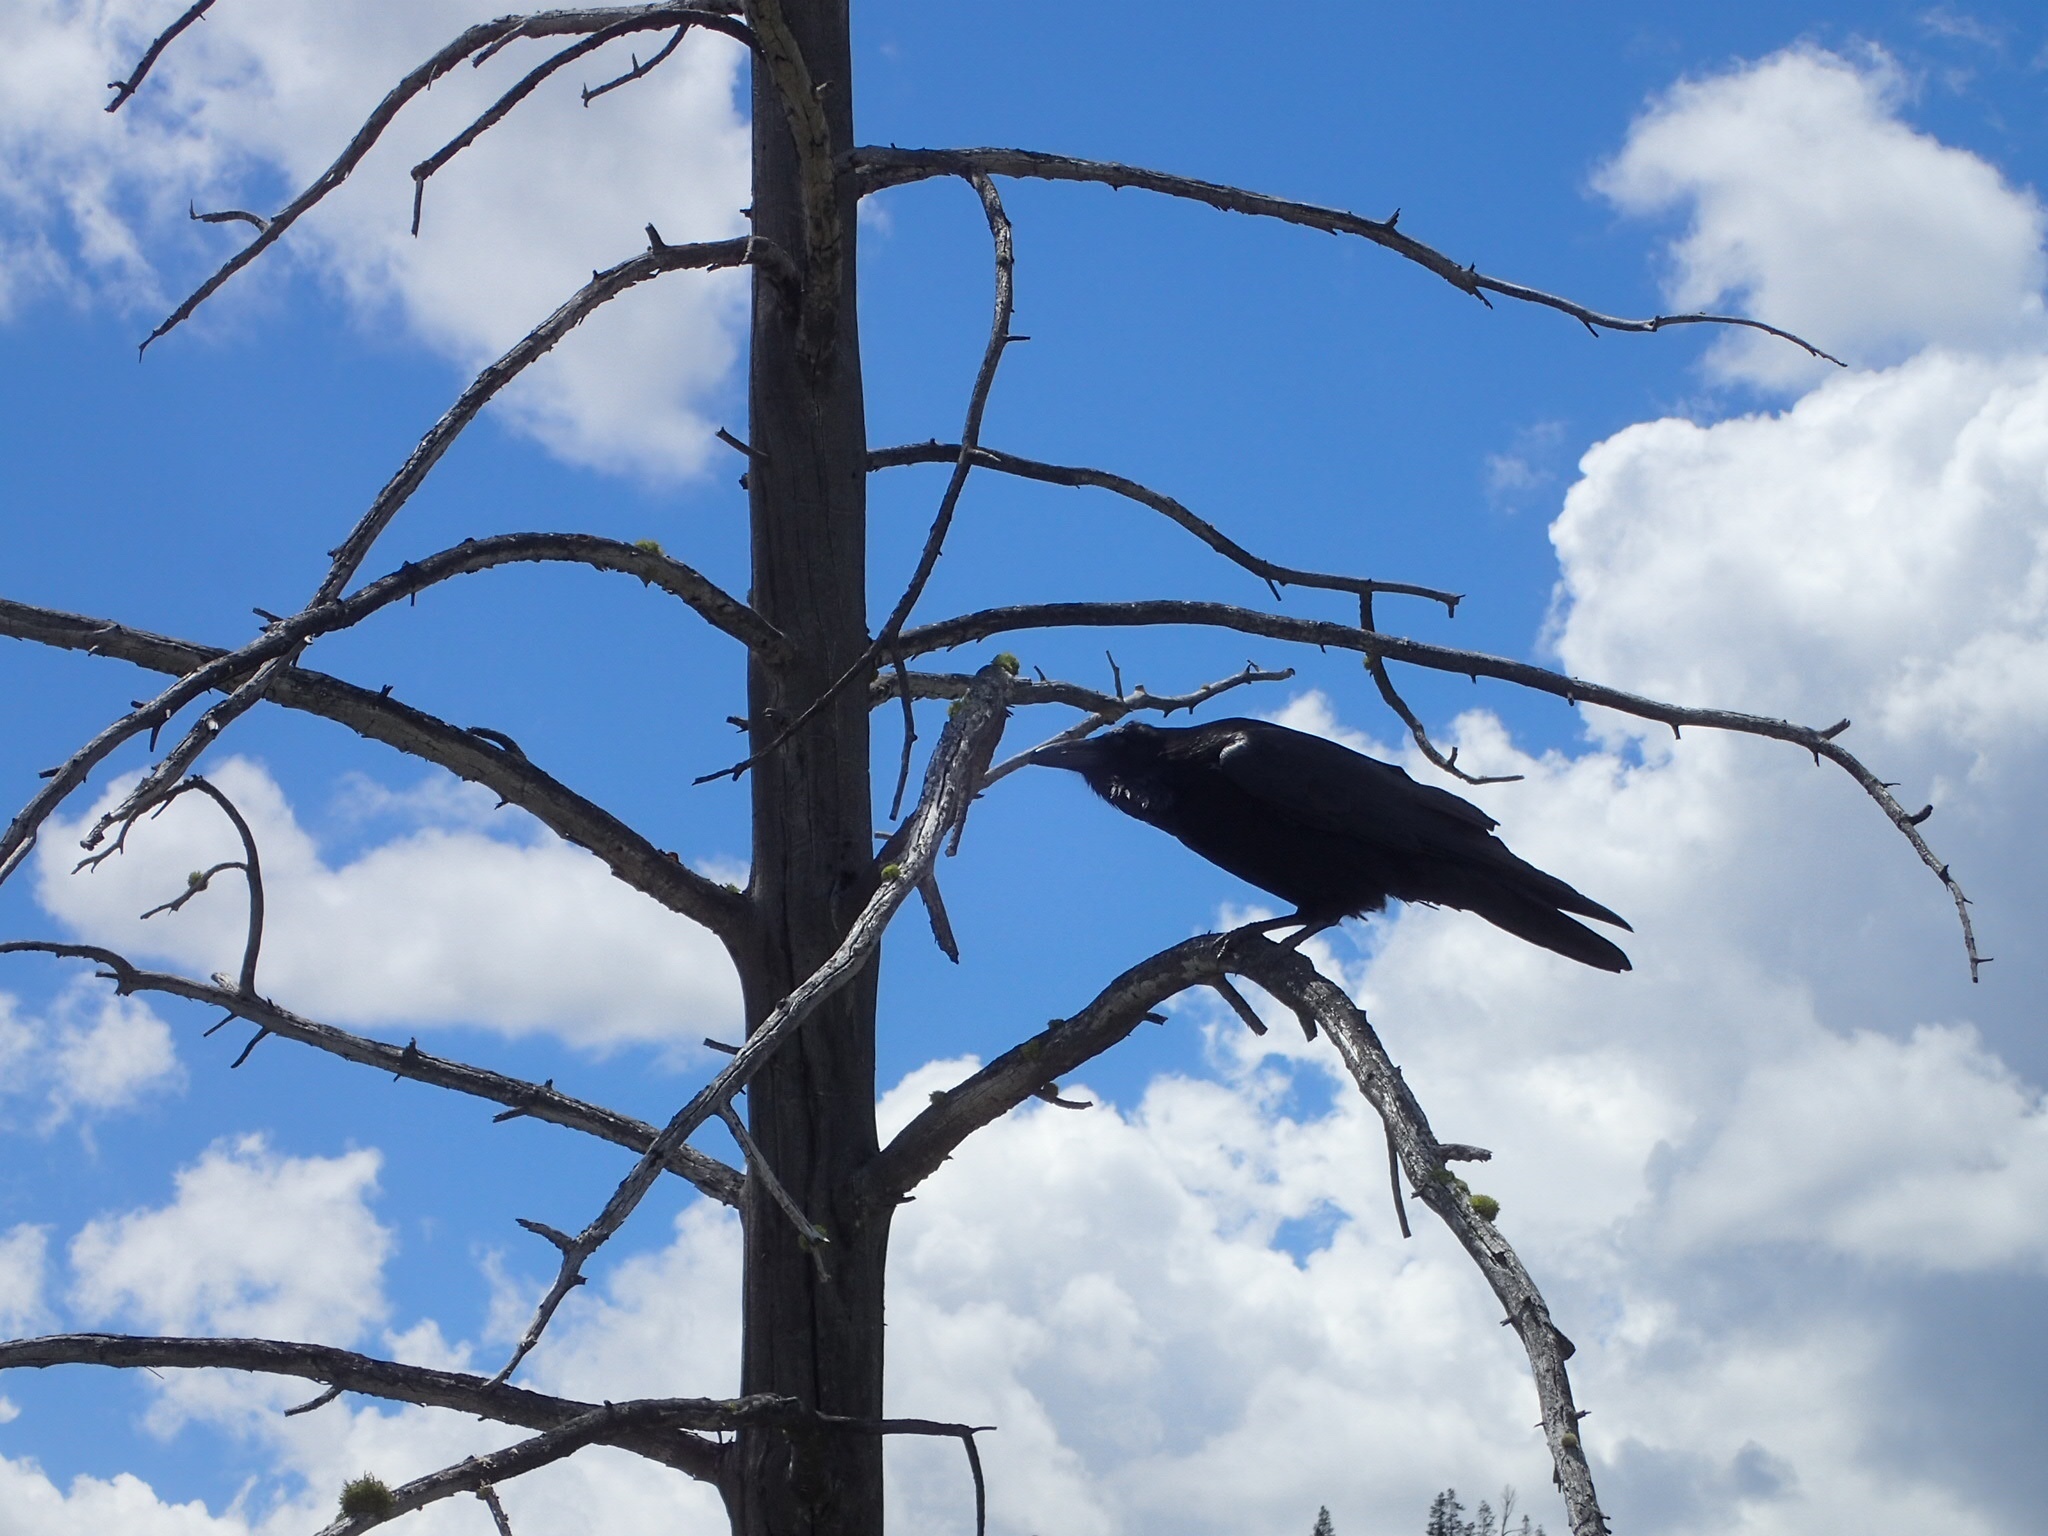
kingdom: Animalia
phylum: Chordata
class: Aves
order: Passeriformes
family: Corvidae
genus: Corvus
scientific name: Corvus corax
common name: Common raven
